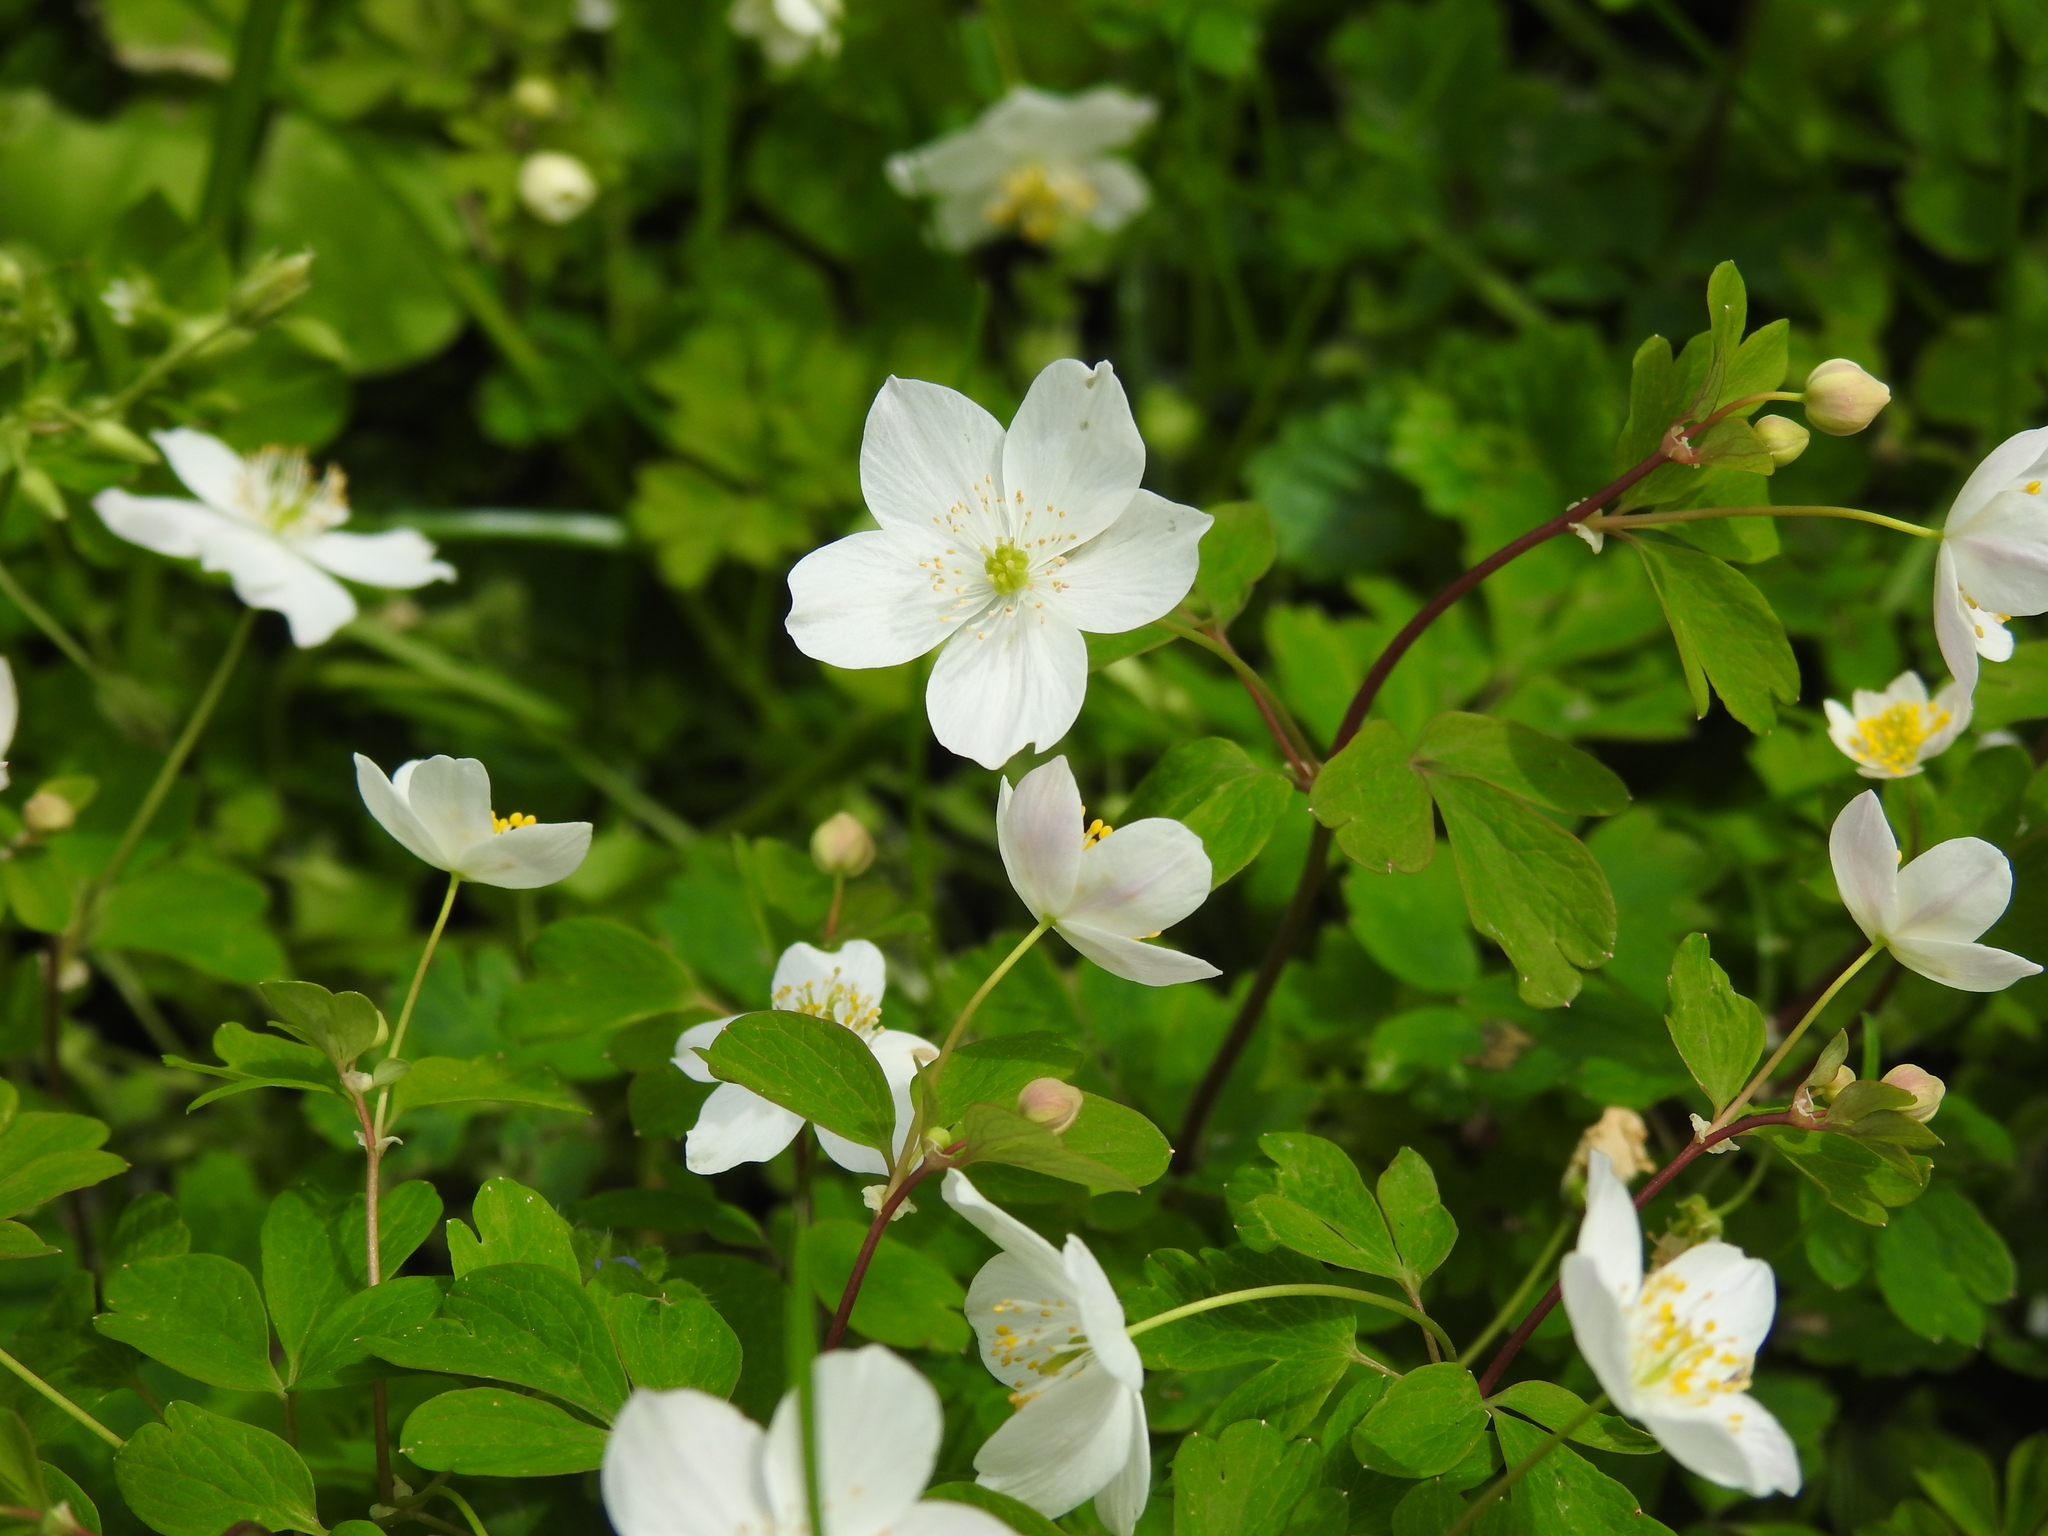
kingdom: Plantae
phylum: Tracheophyta
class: Magnoliopsida
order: Ranunculales
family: Ranunculaceae
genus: Enemion
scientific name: Enemion biternatum
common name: Eastern false rue-anemone
